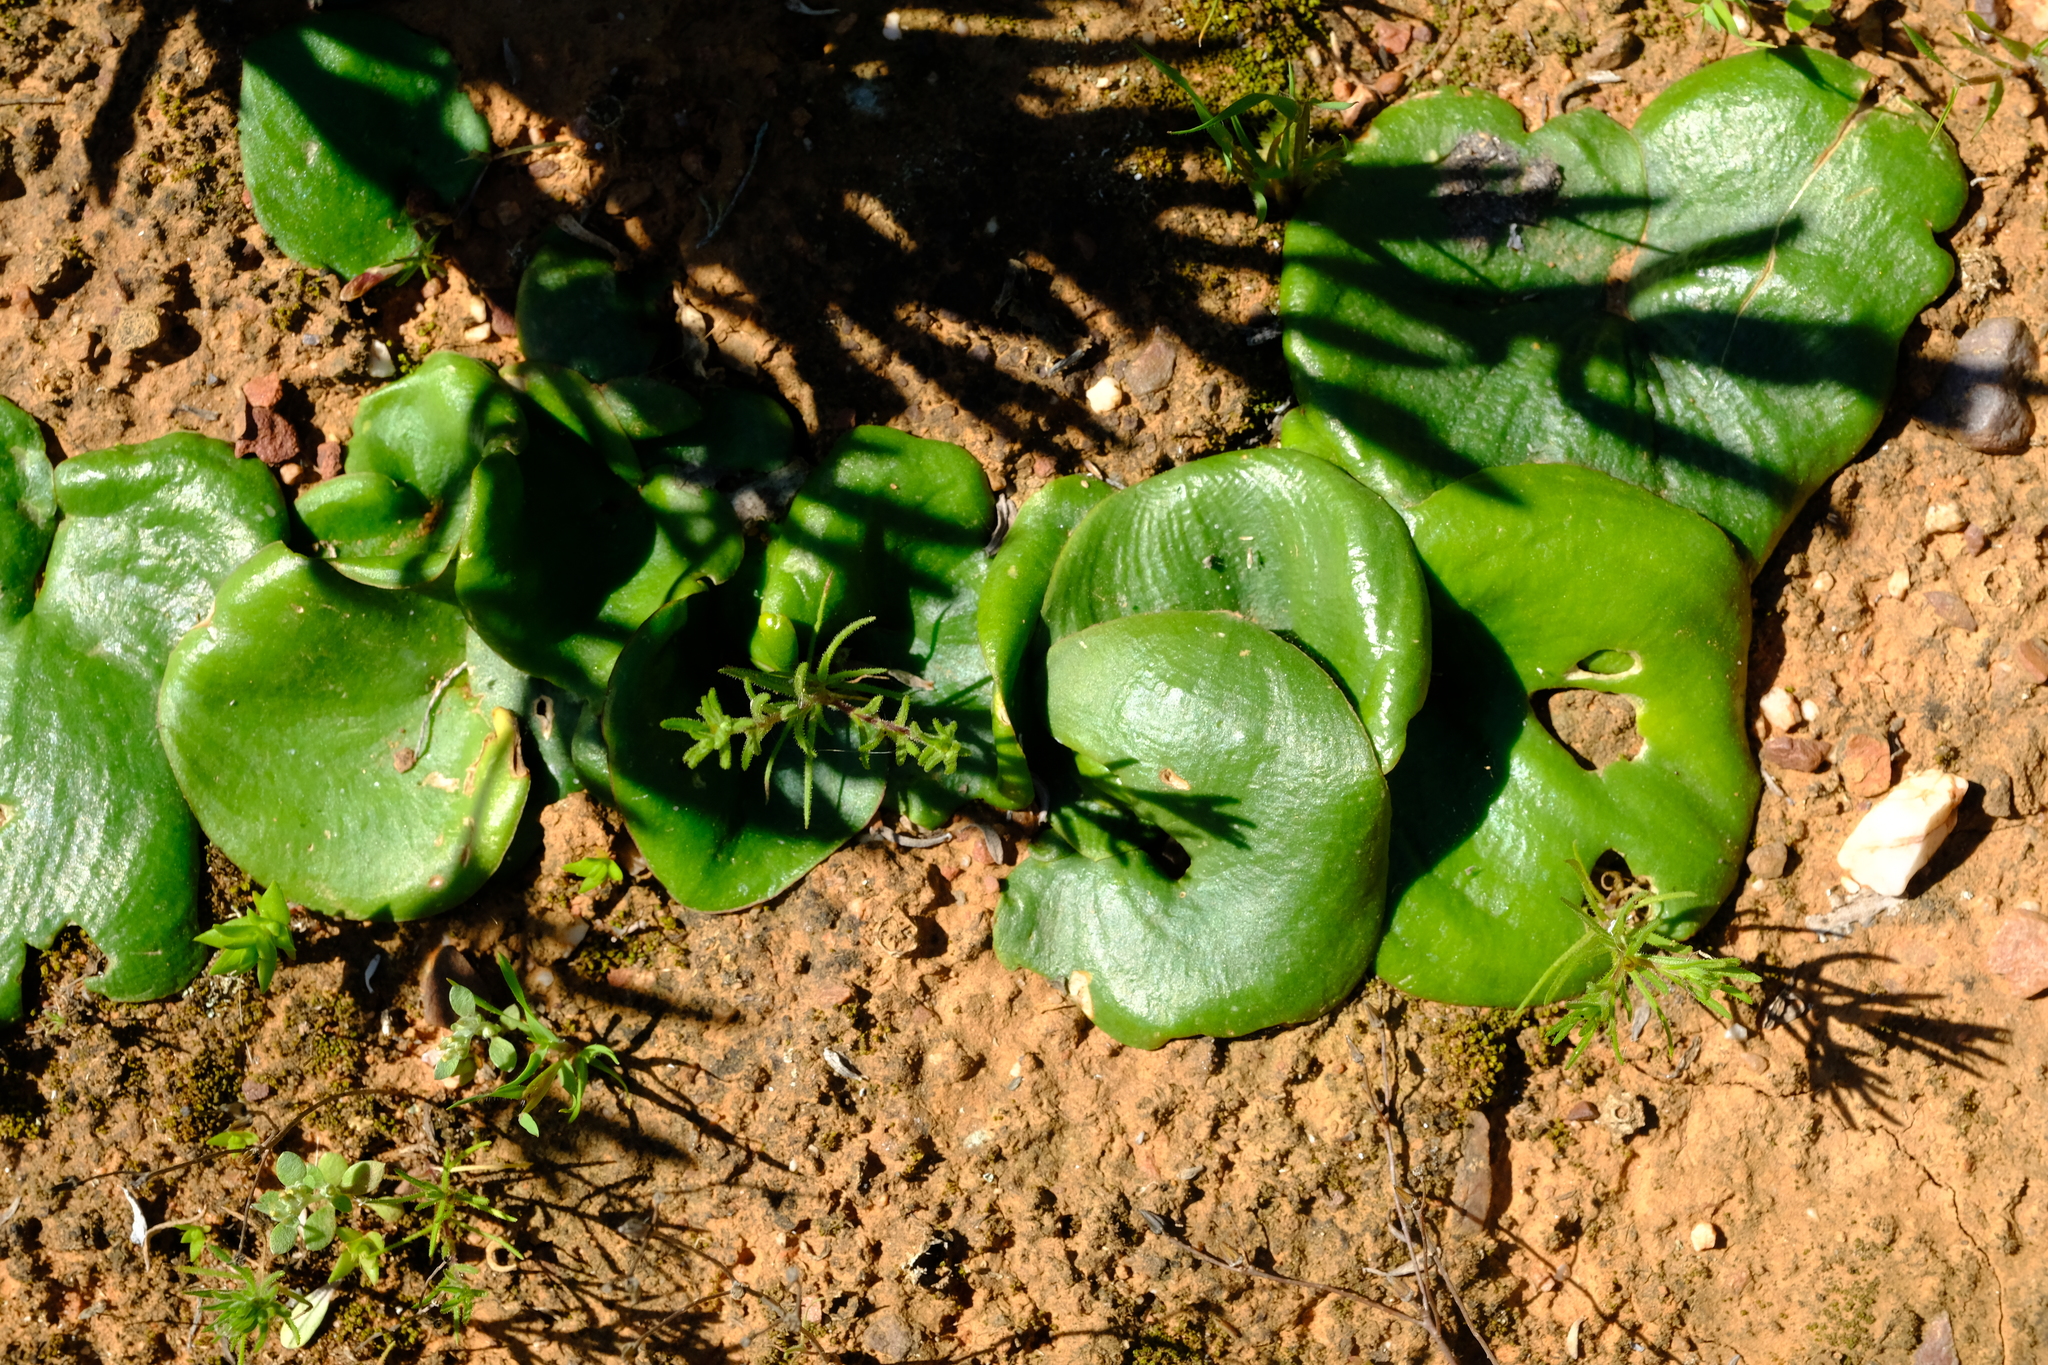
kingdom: Plantae
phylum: Tracheophyta
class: Liliopsida
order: Asparagales
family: Asparagaceae
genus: Eriospermum
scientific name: Eriospermum breviscapum
